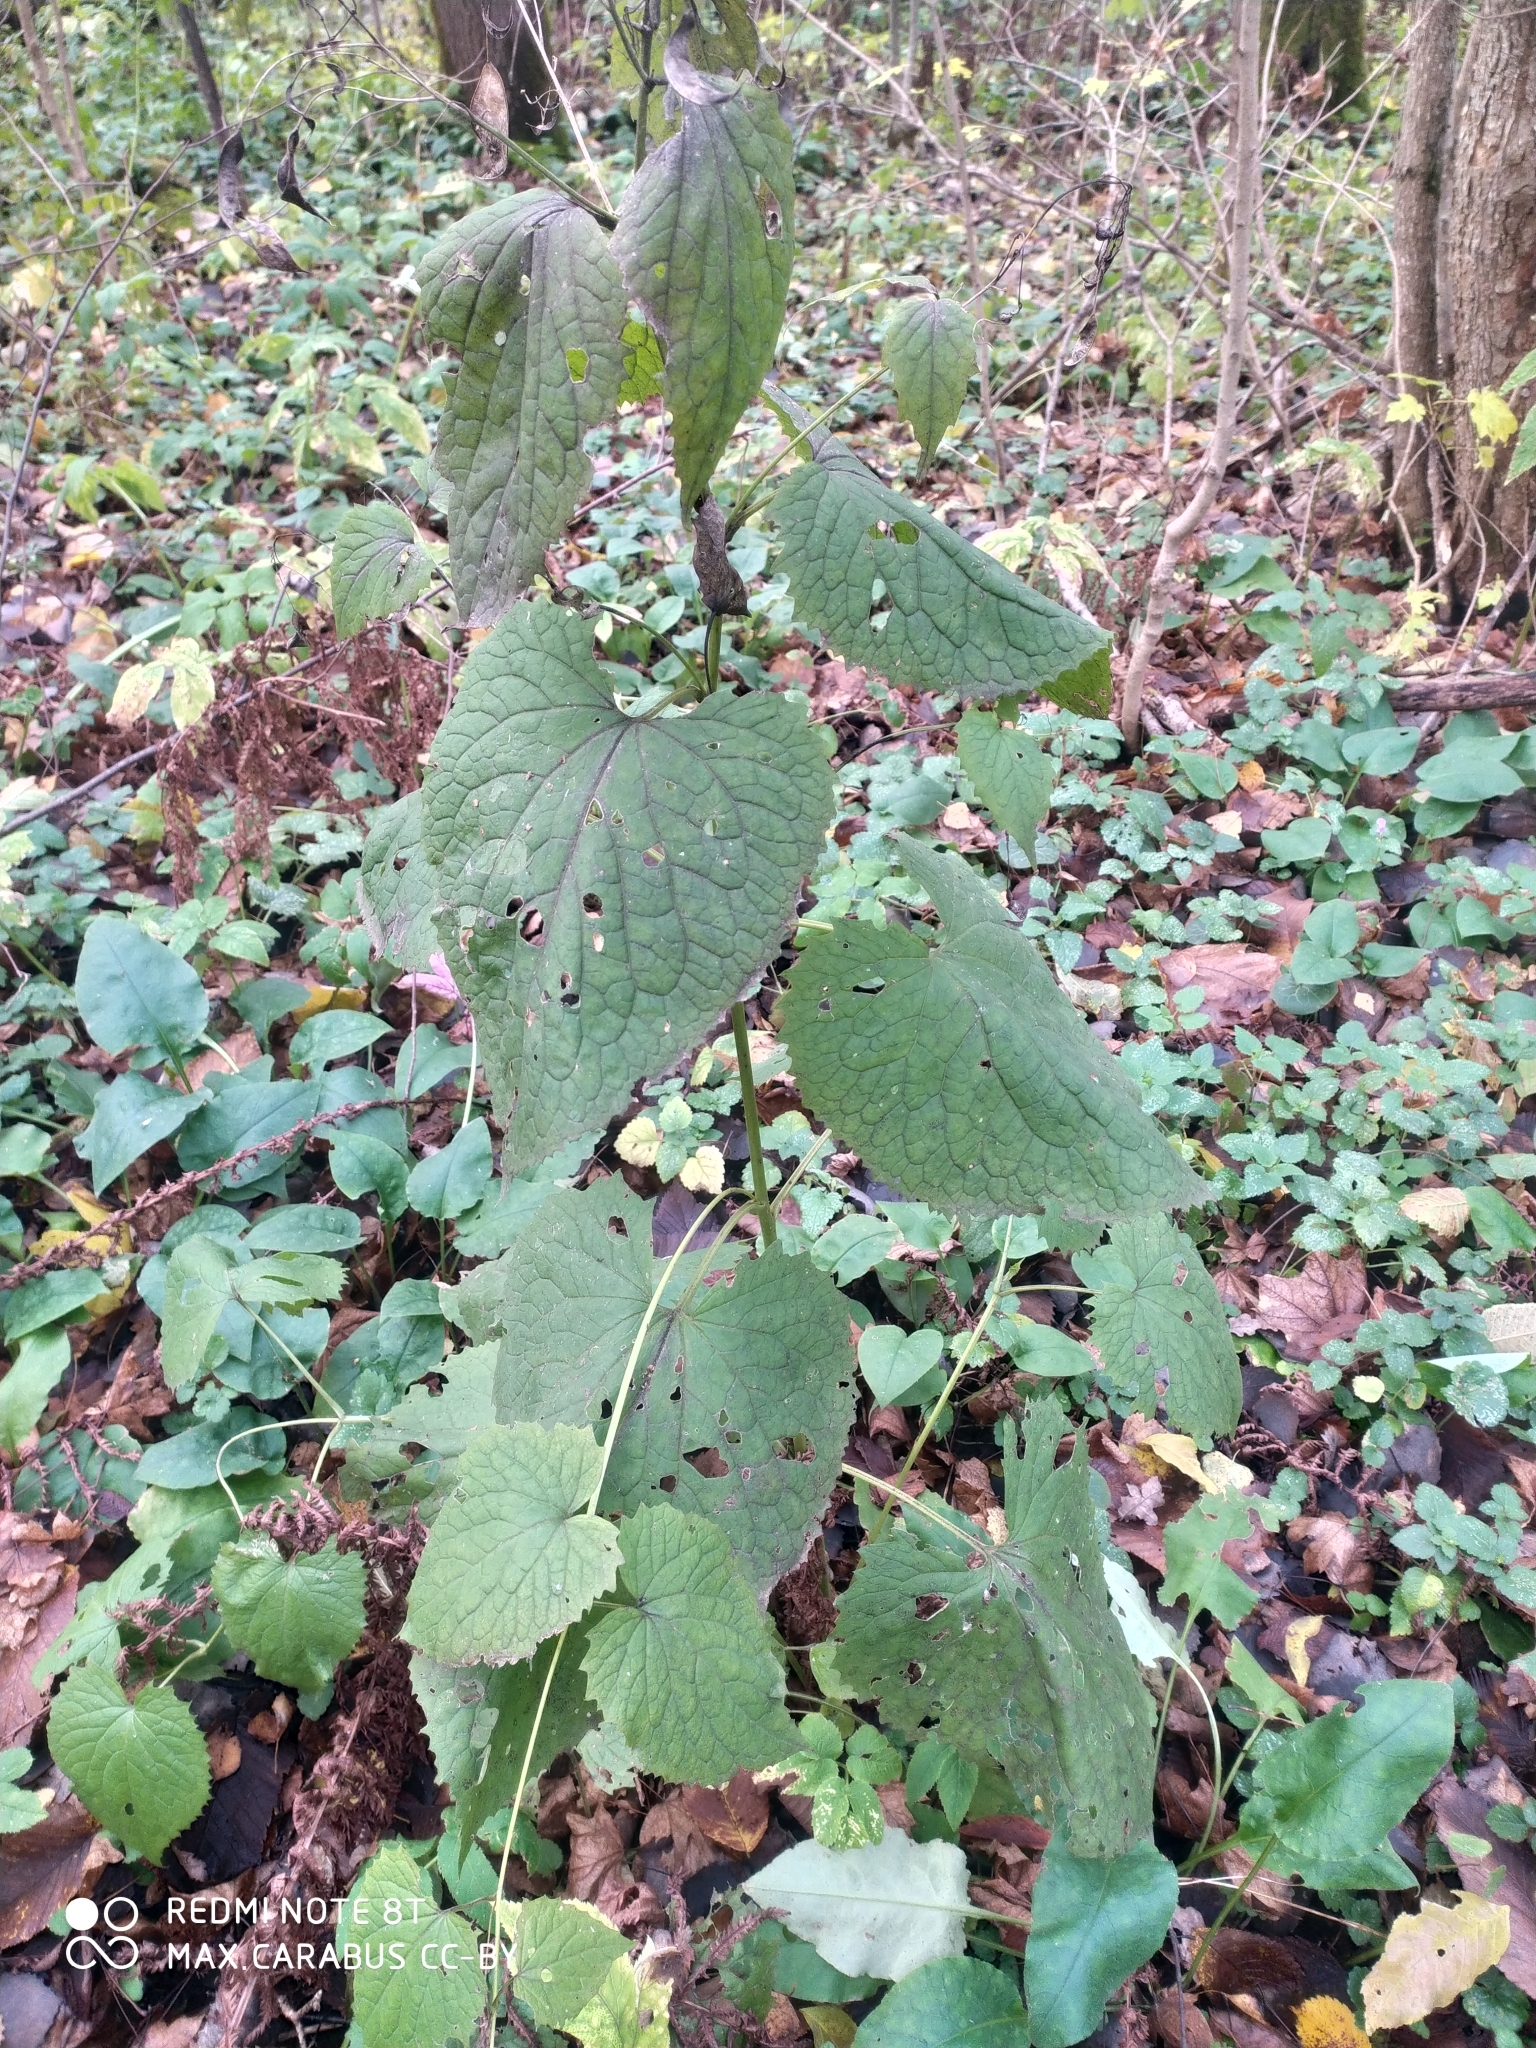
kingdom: Plantae
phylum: Tracheophyta
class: Magnoliopsida
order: Brassicales
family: Brassicaceae
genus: Lunaria
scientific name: Lunaria rediviva
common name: Perennial honesty
